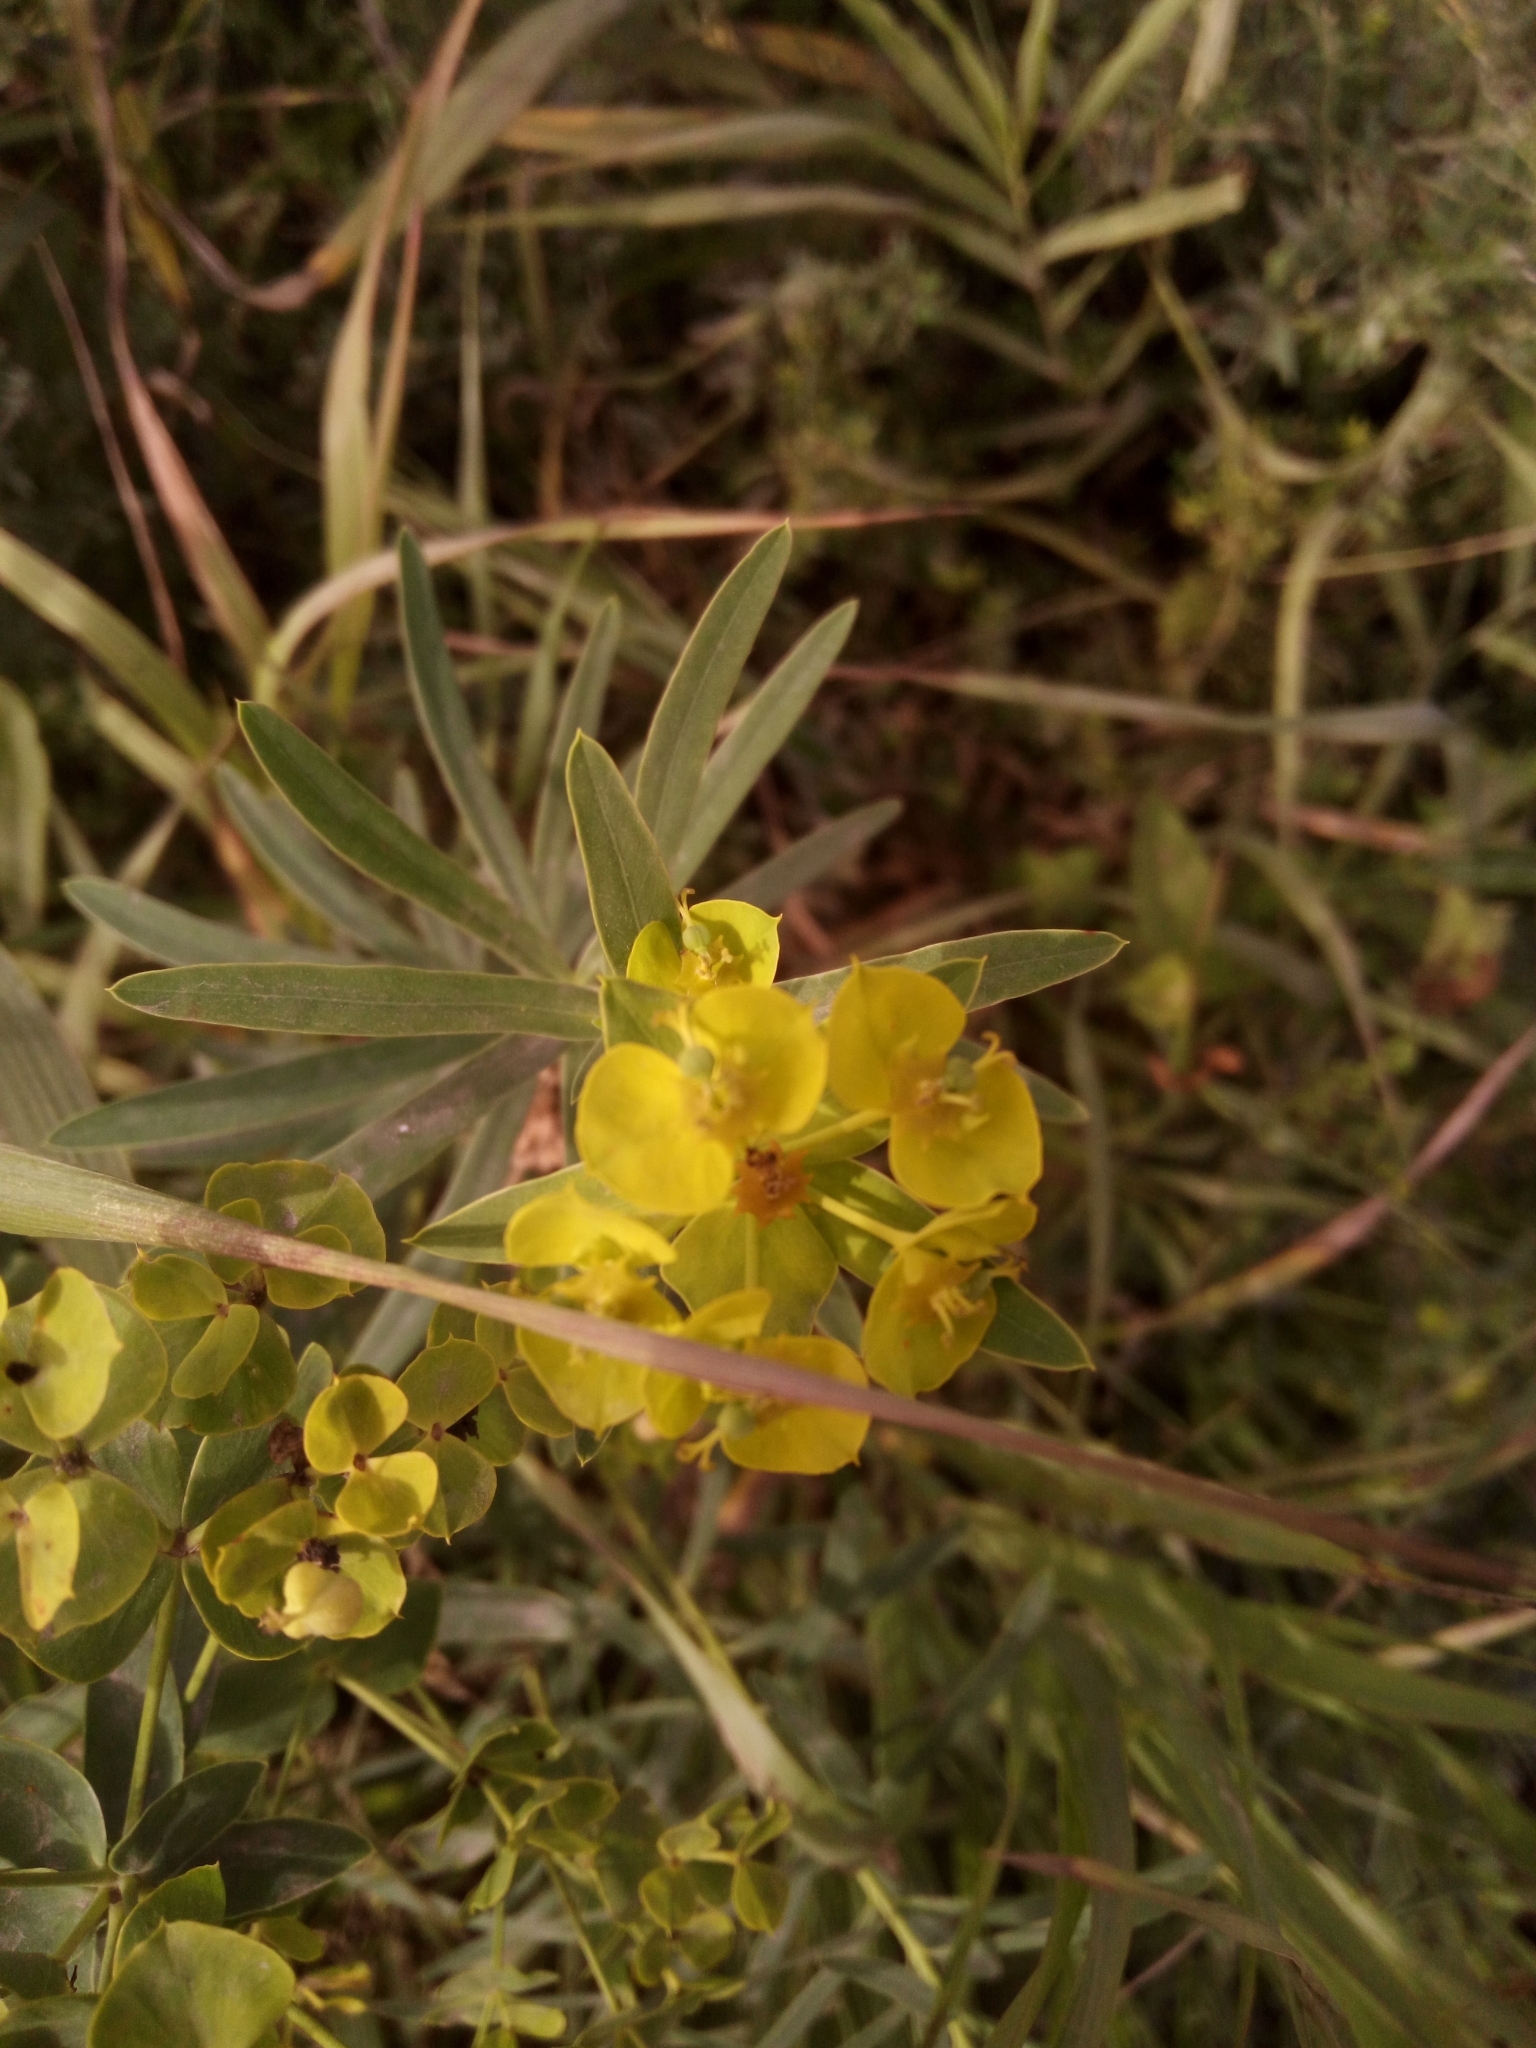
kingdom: Plantae
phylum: Tracheophyta
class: Magnoliopsida
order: Malpighiales
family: Euphorbiaceae
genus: Euphorbia
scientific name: Euphorbia virgata
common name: Leafy spurge
